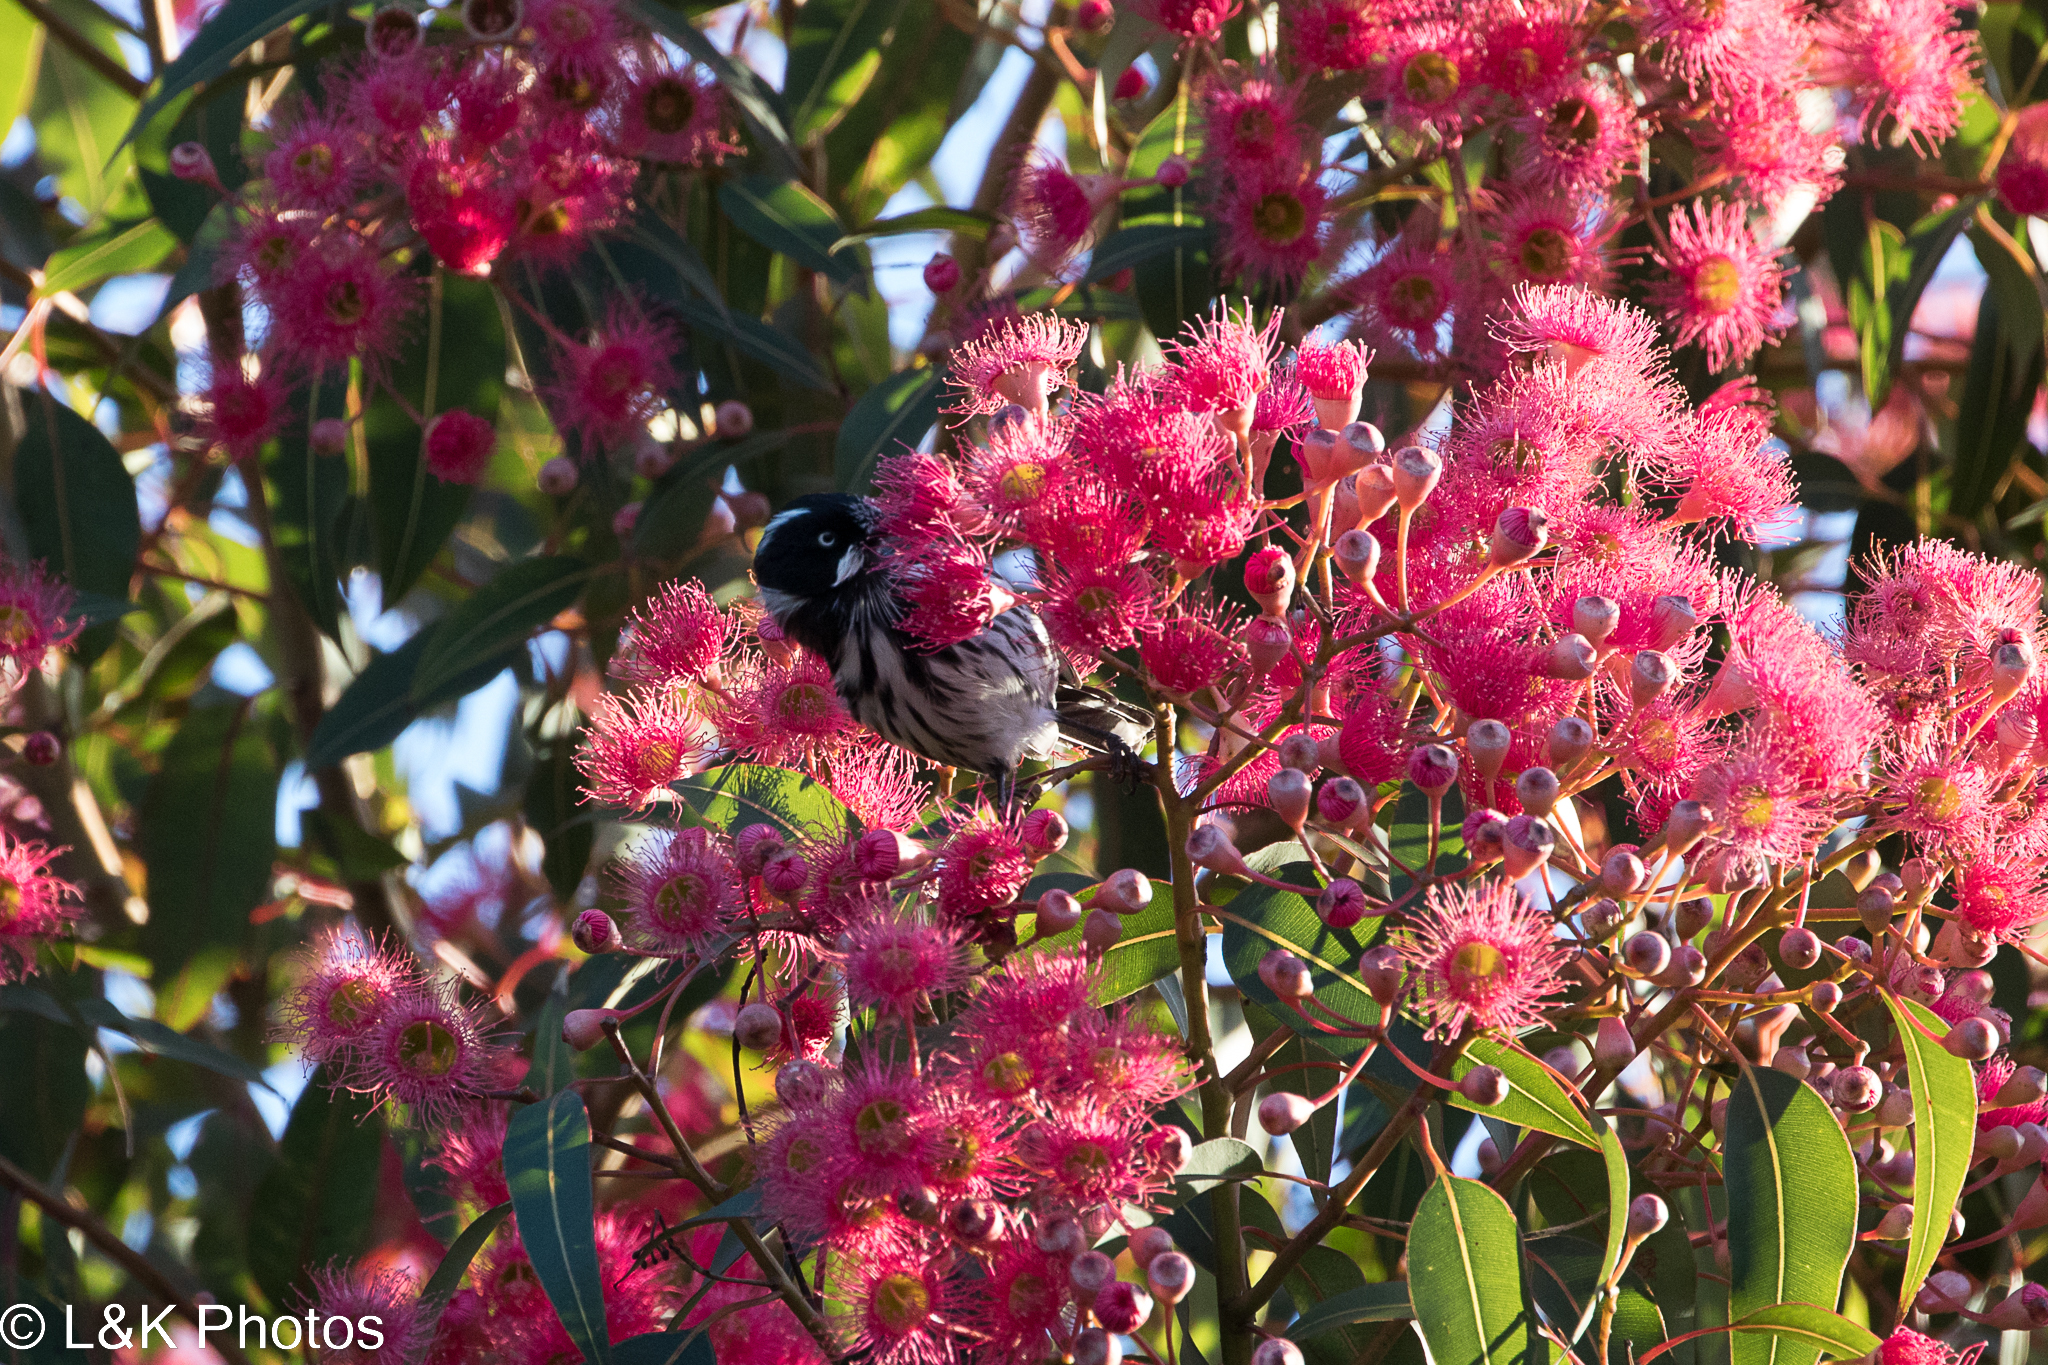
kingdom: Animalia
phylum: Chordata
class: Aves
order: Passeriformes
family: Meliphagidae
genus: Phylidonyris
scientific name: Phylidonyris novaehollandiae
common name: New holland honeyeater
